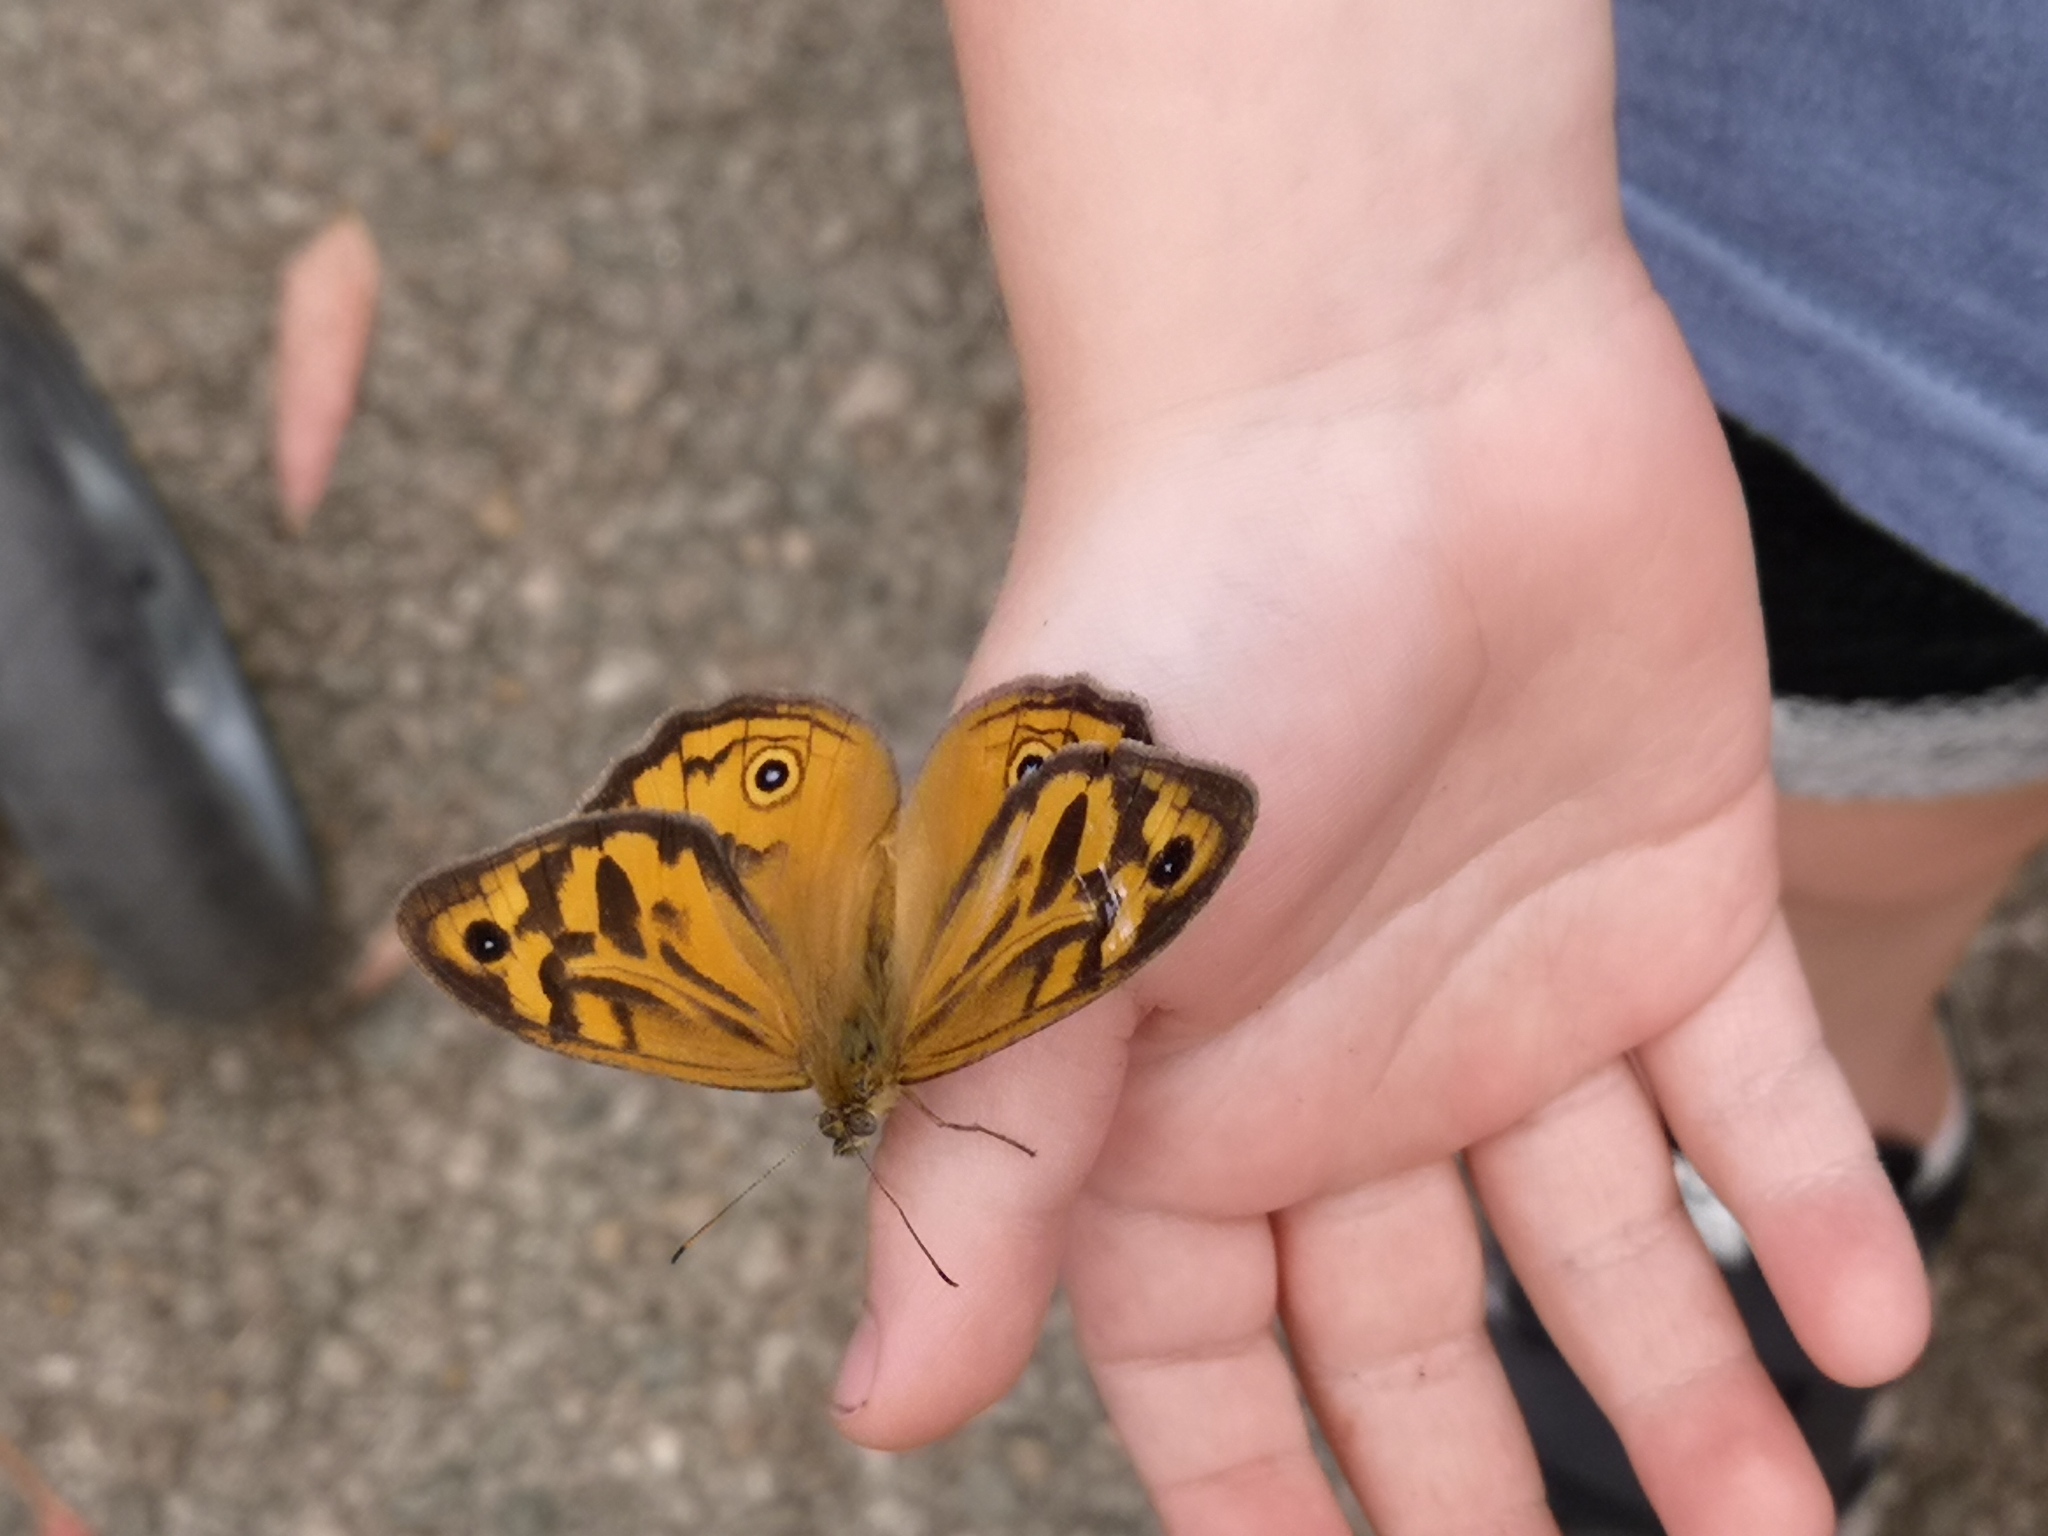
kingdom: Animalia
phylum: Arthropoda
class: Insecta
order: Lepidoptera
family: Nymphalidae
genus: Heteronympha
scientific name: Heteronympha merope
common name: Common brown
